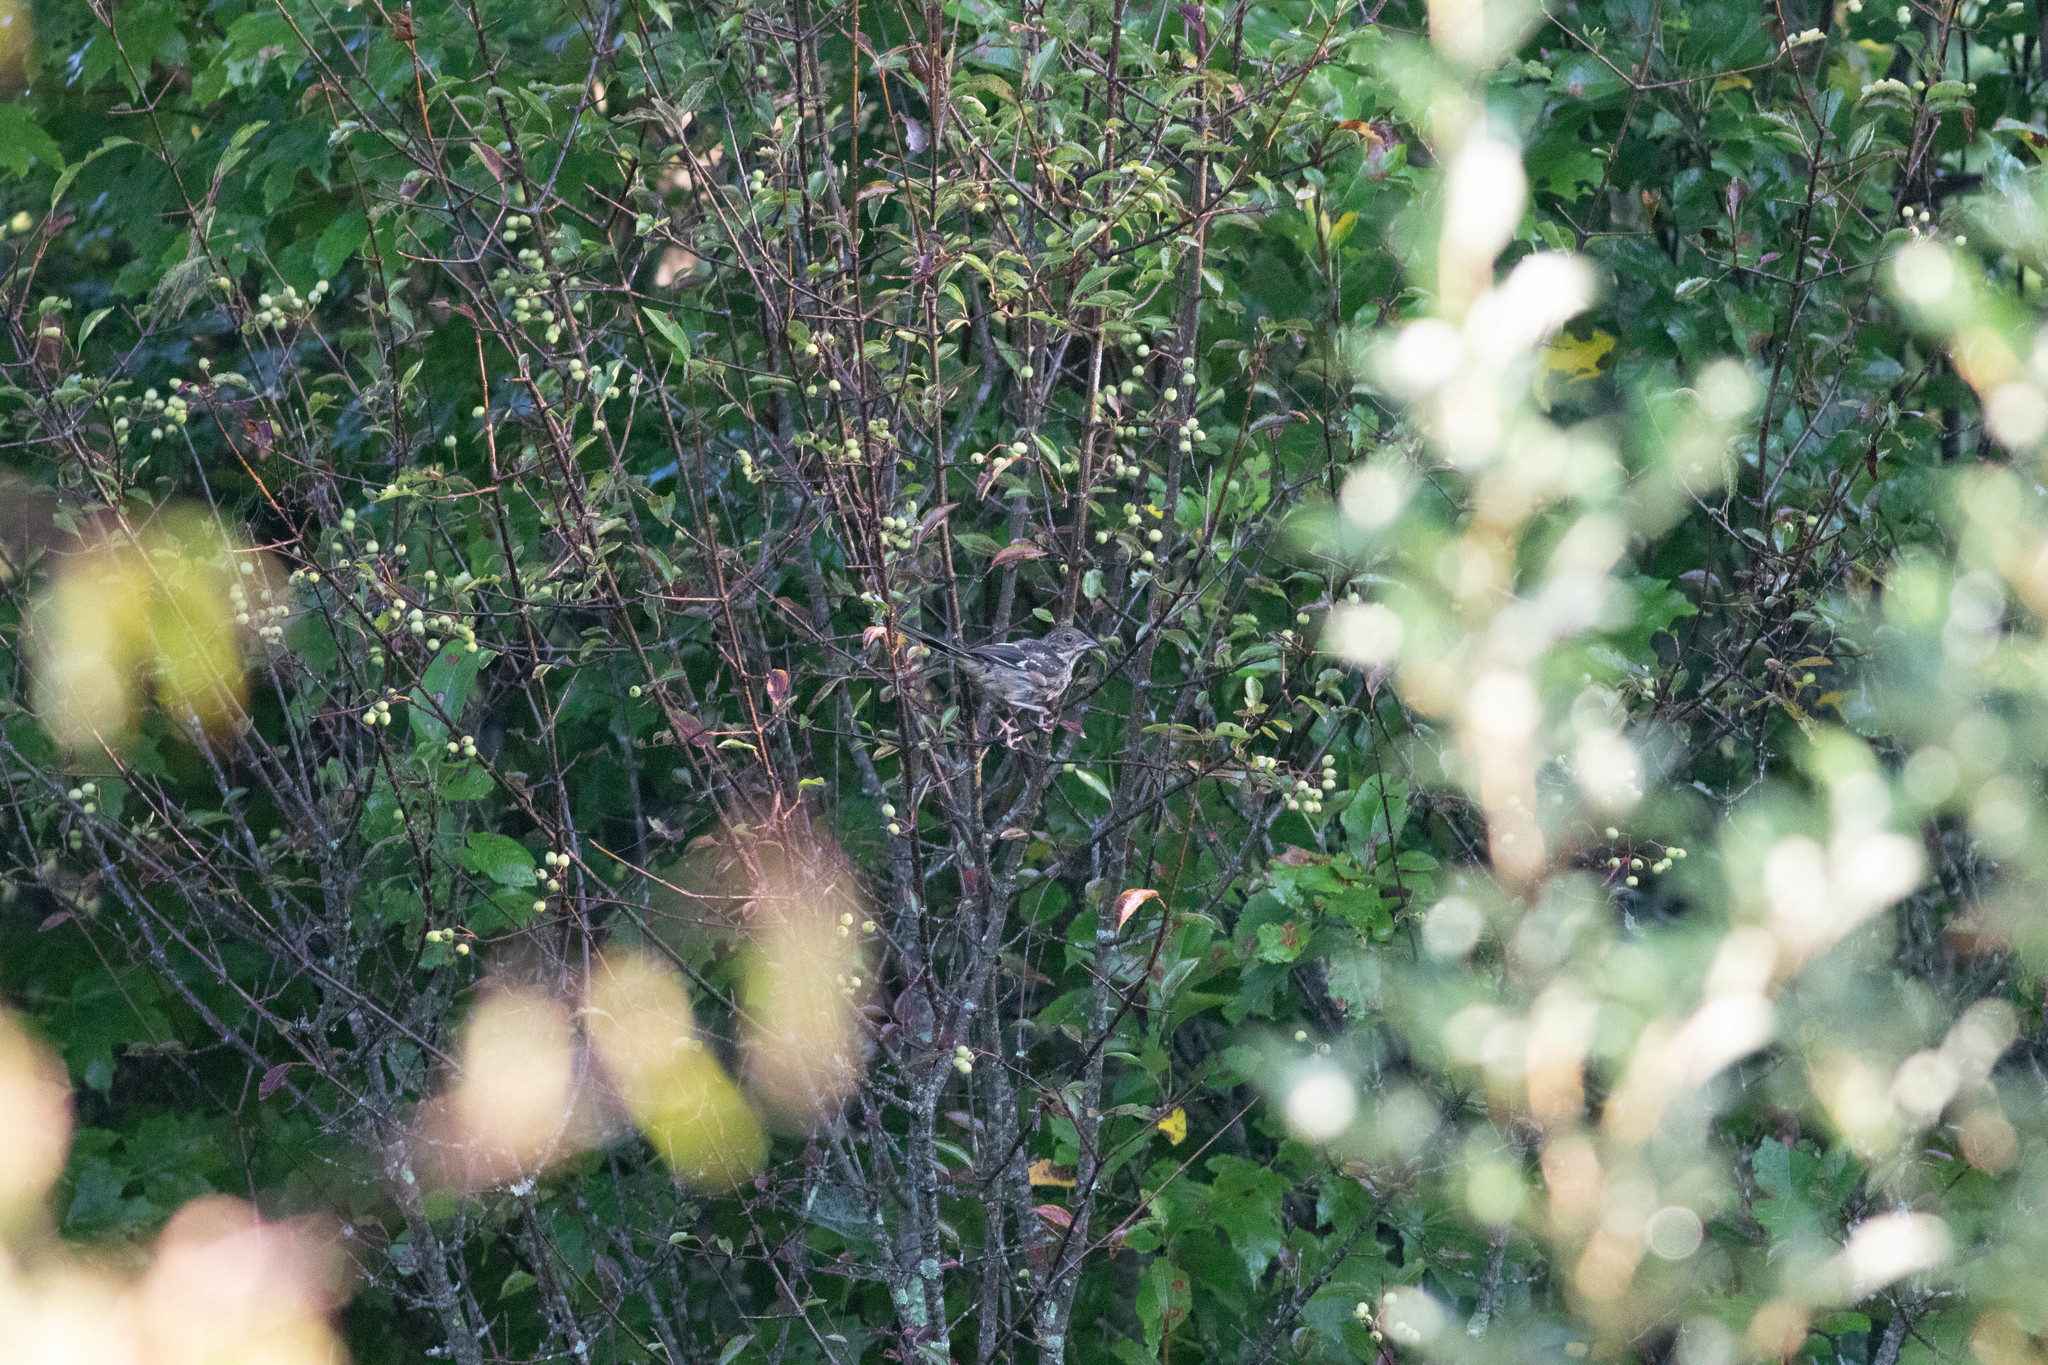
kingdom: Animalia
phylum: Chordata
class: Aves
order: Passeriformes
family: Passerellidae
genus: Pipilo
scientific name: Pipilo erythrophthalmus
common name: Eastern towhee
